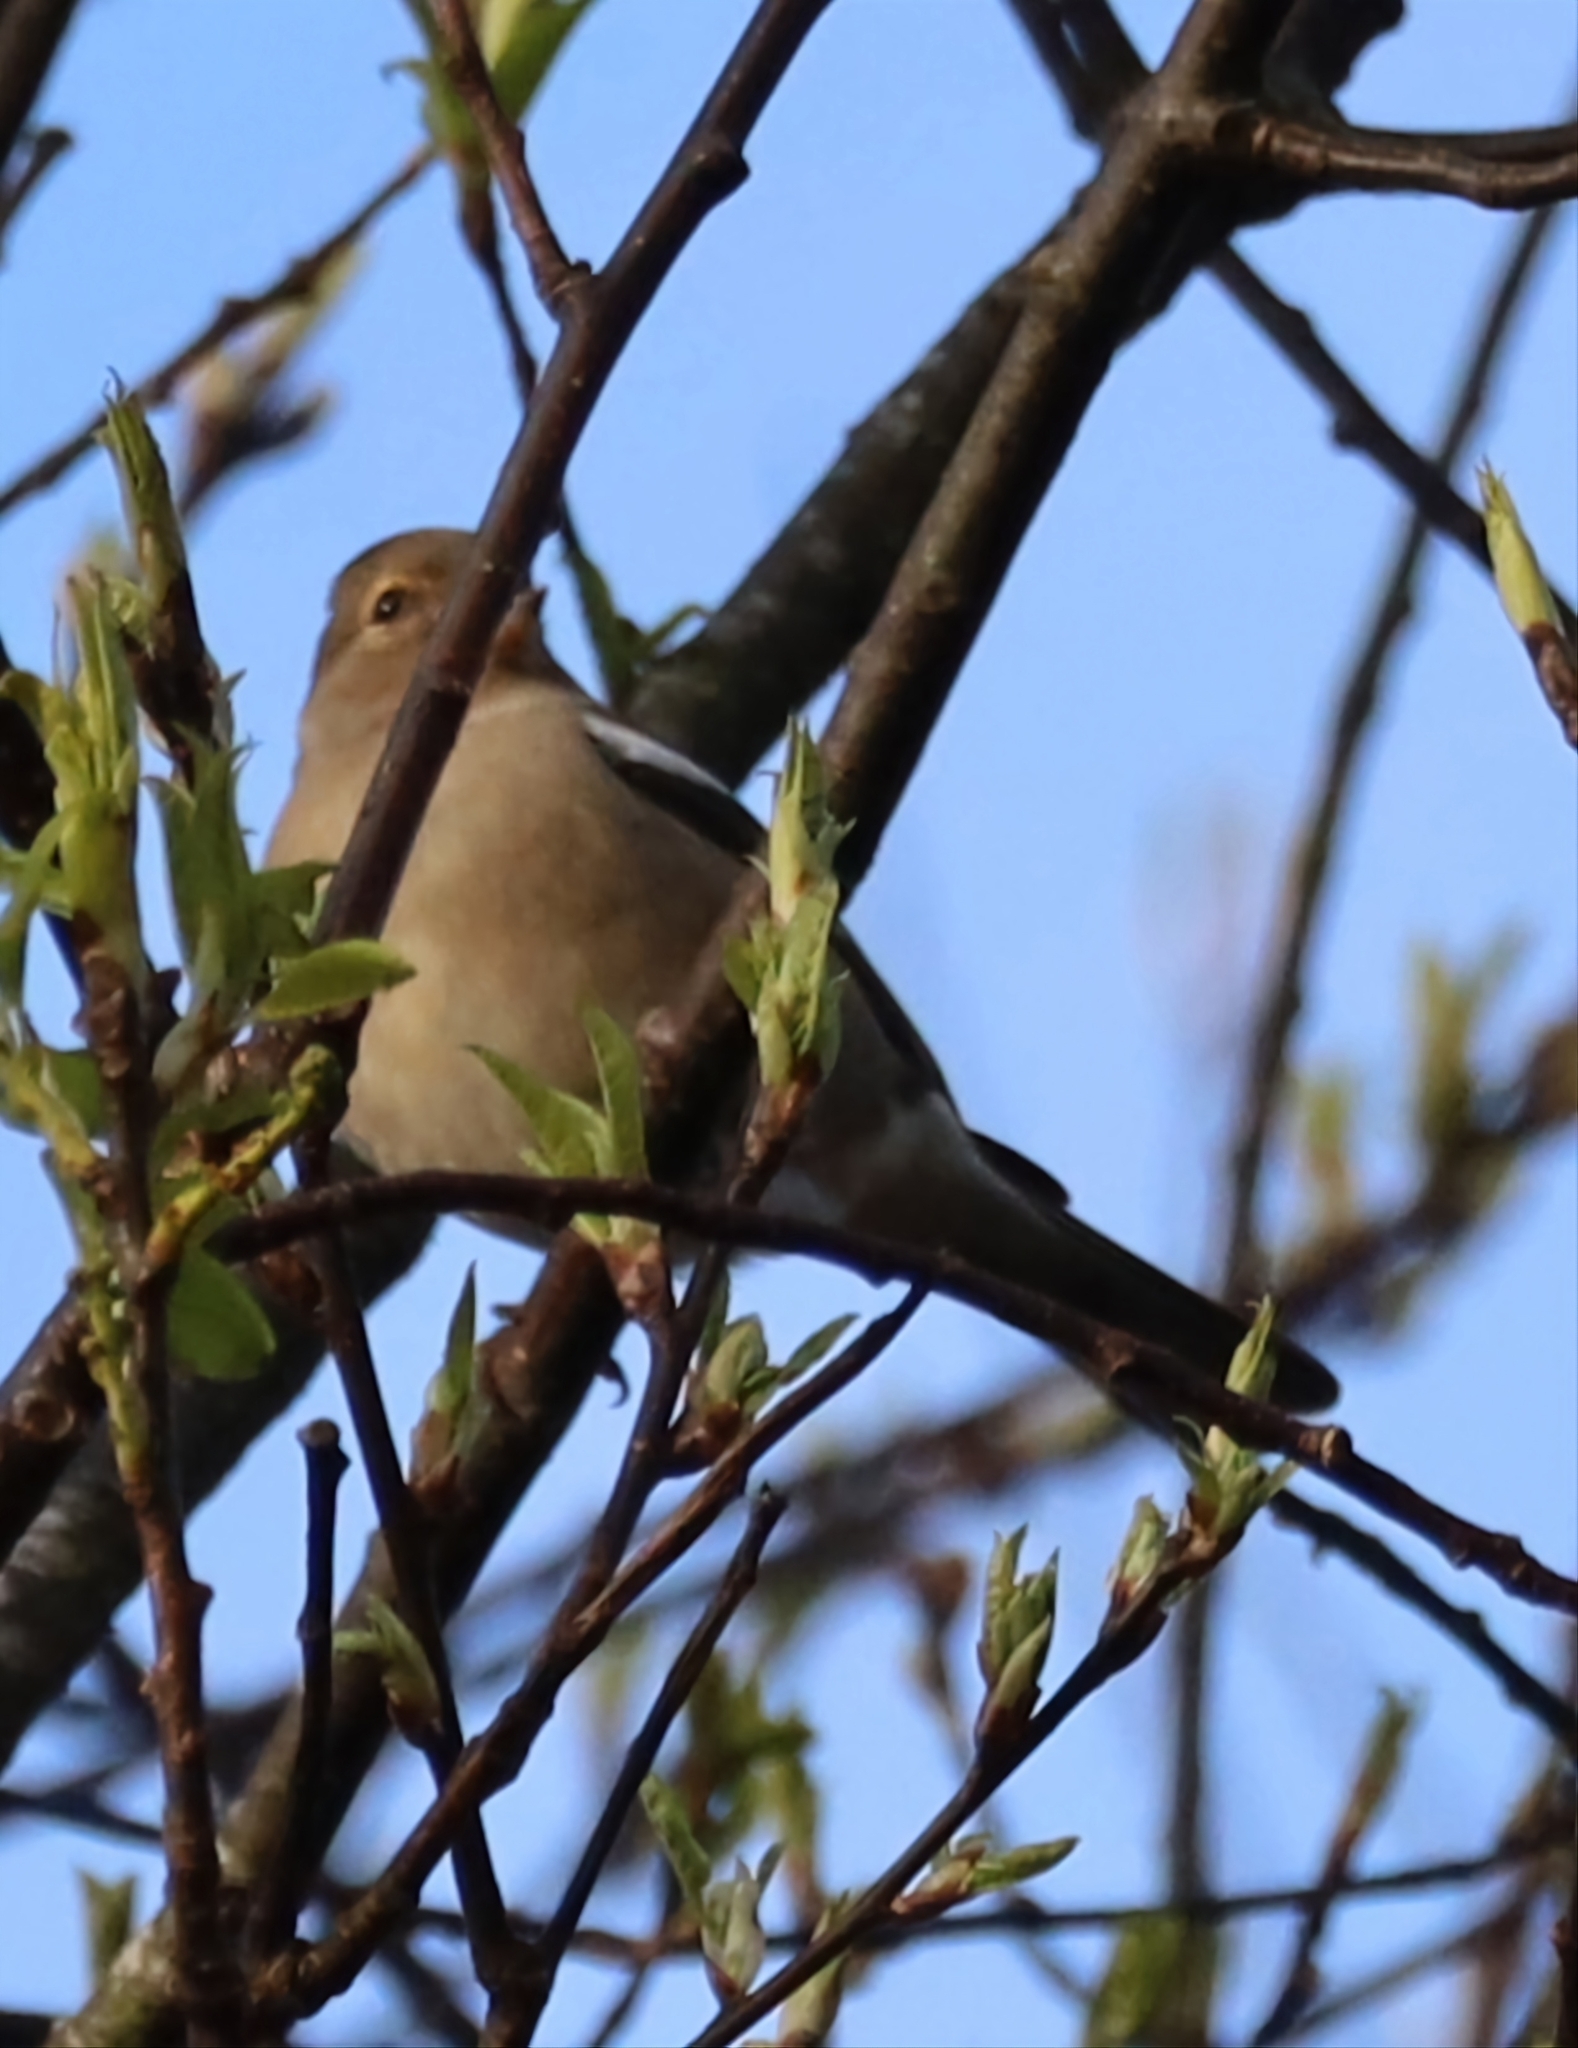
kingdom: Animalia
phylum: Chordata
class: Aves
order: Passeriformes
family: Fringillidae
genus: Fringilla
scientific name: Fringilla coelebs
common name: Common chaffinch
